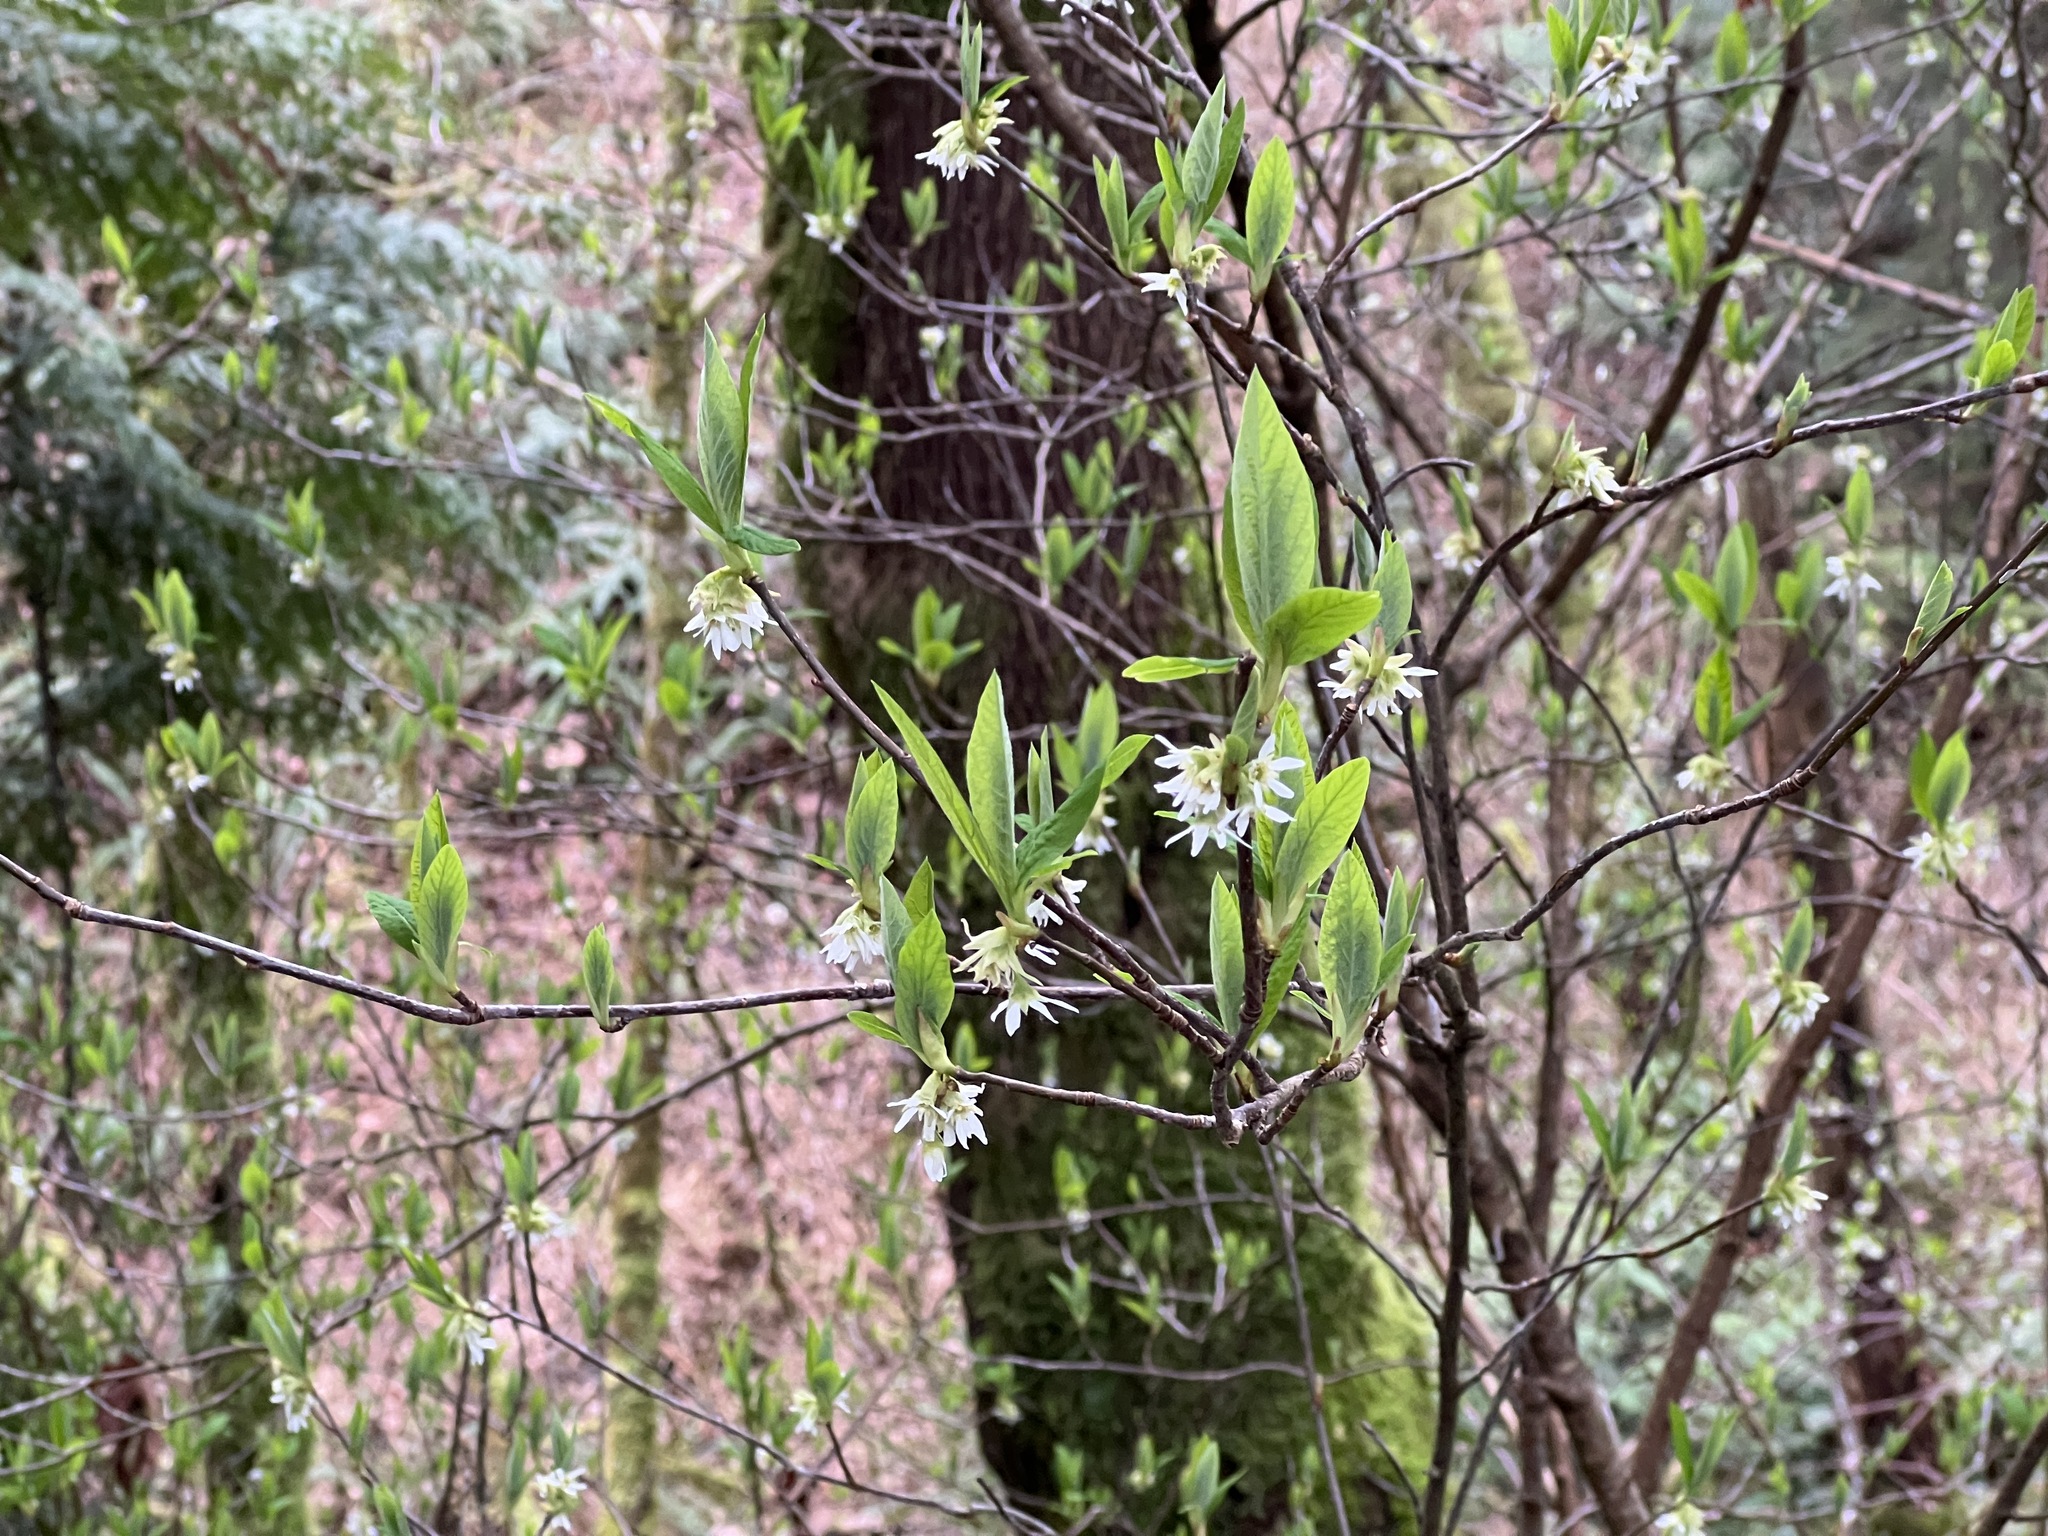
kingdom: Plantae
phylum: Tracheophyta
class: Magnoliopsida
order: Rosales
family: Rosaceae
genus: Oemleria
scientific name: Oemleria cerasiformis
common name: Osoberry
